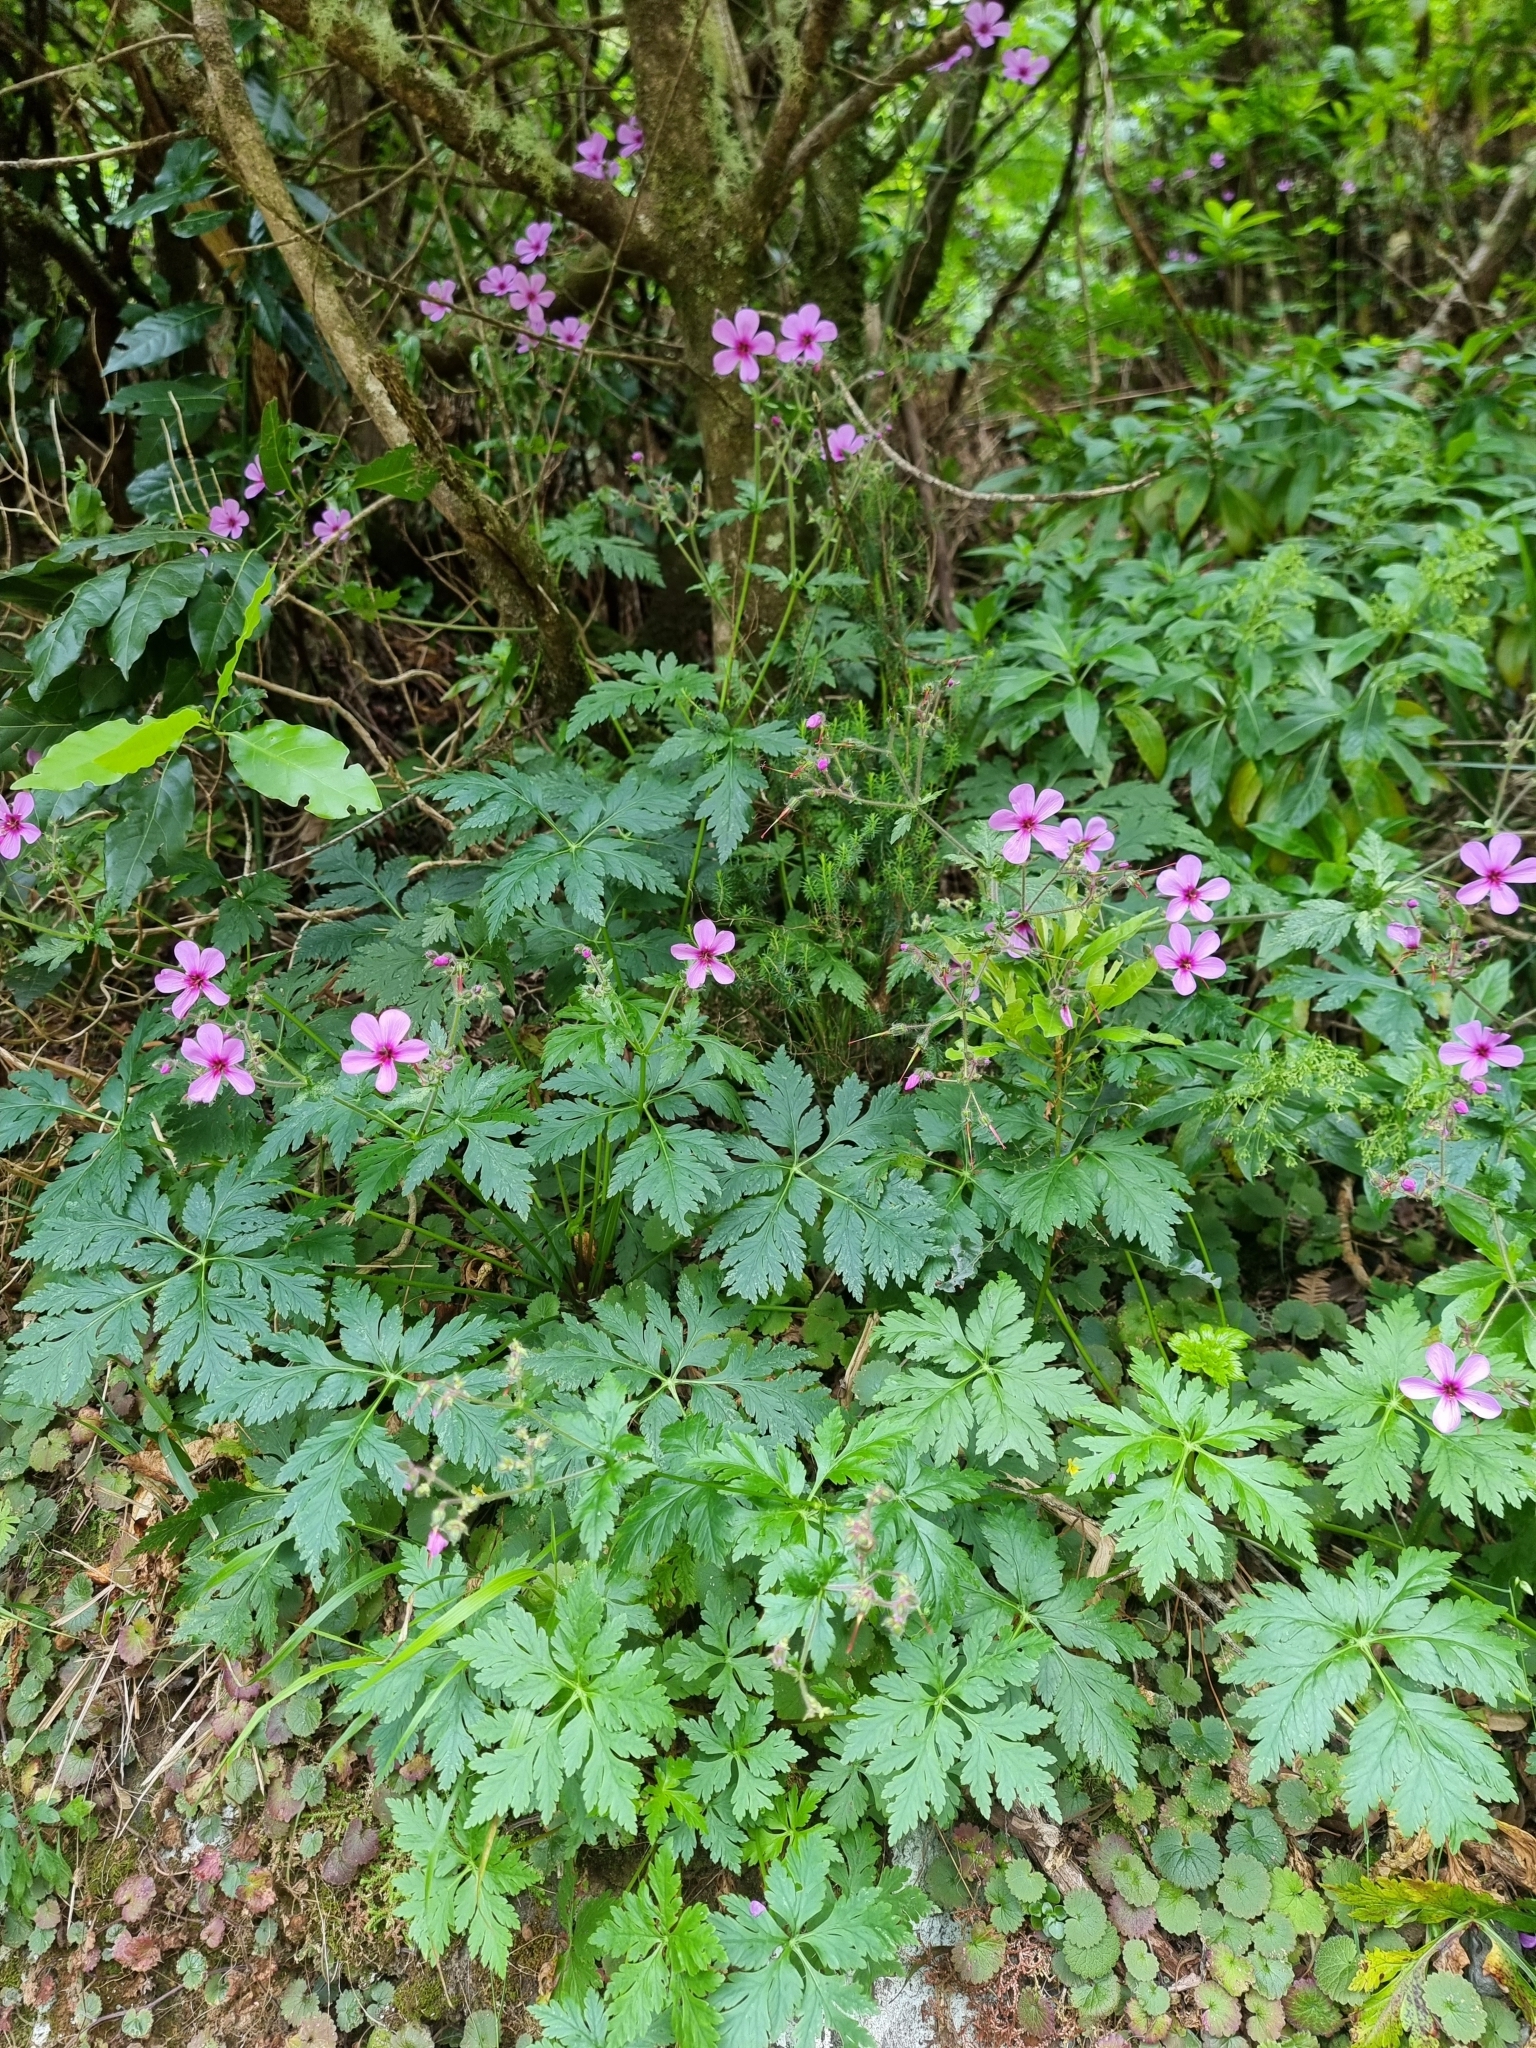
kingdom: Plantae
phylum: Tracheophyta
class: Magnoliopsida
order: Geraniales
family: Geraniaceae
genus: Geranium
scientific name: Geranium palmatum
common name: Canary island geranium
